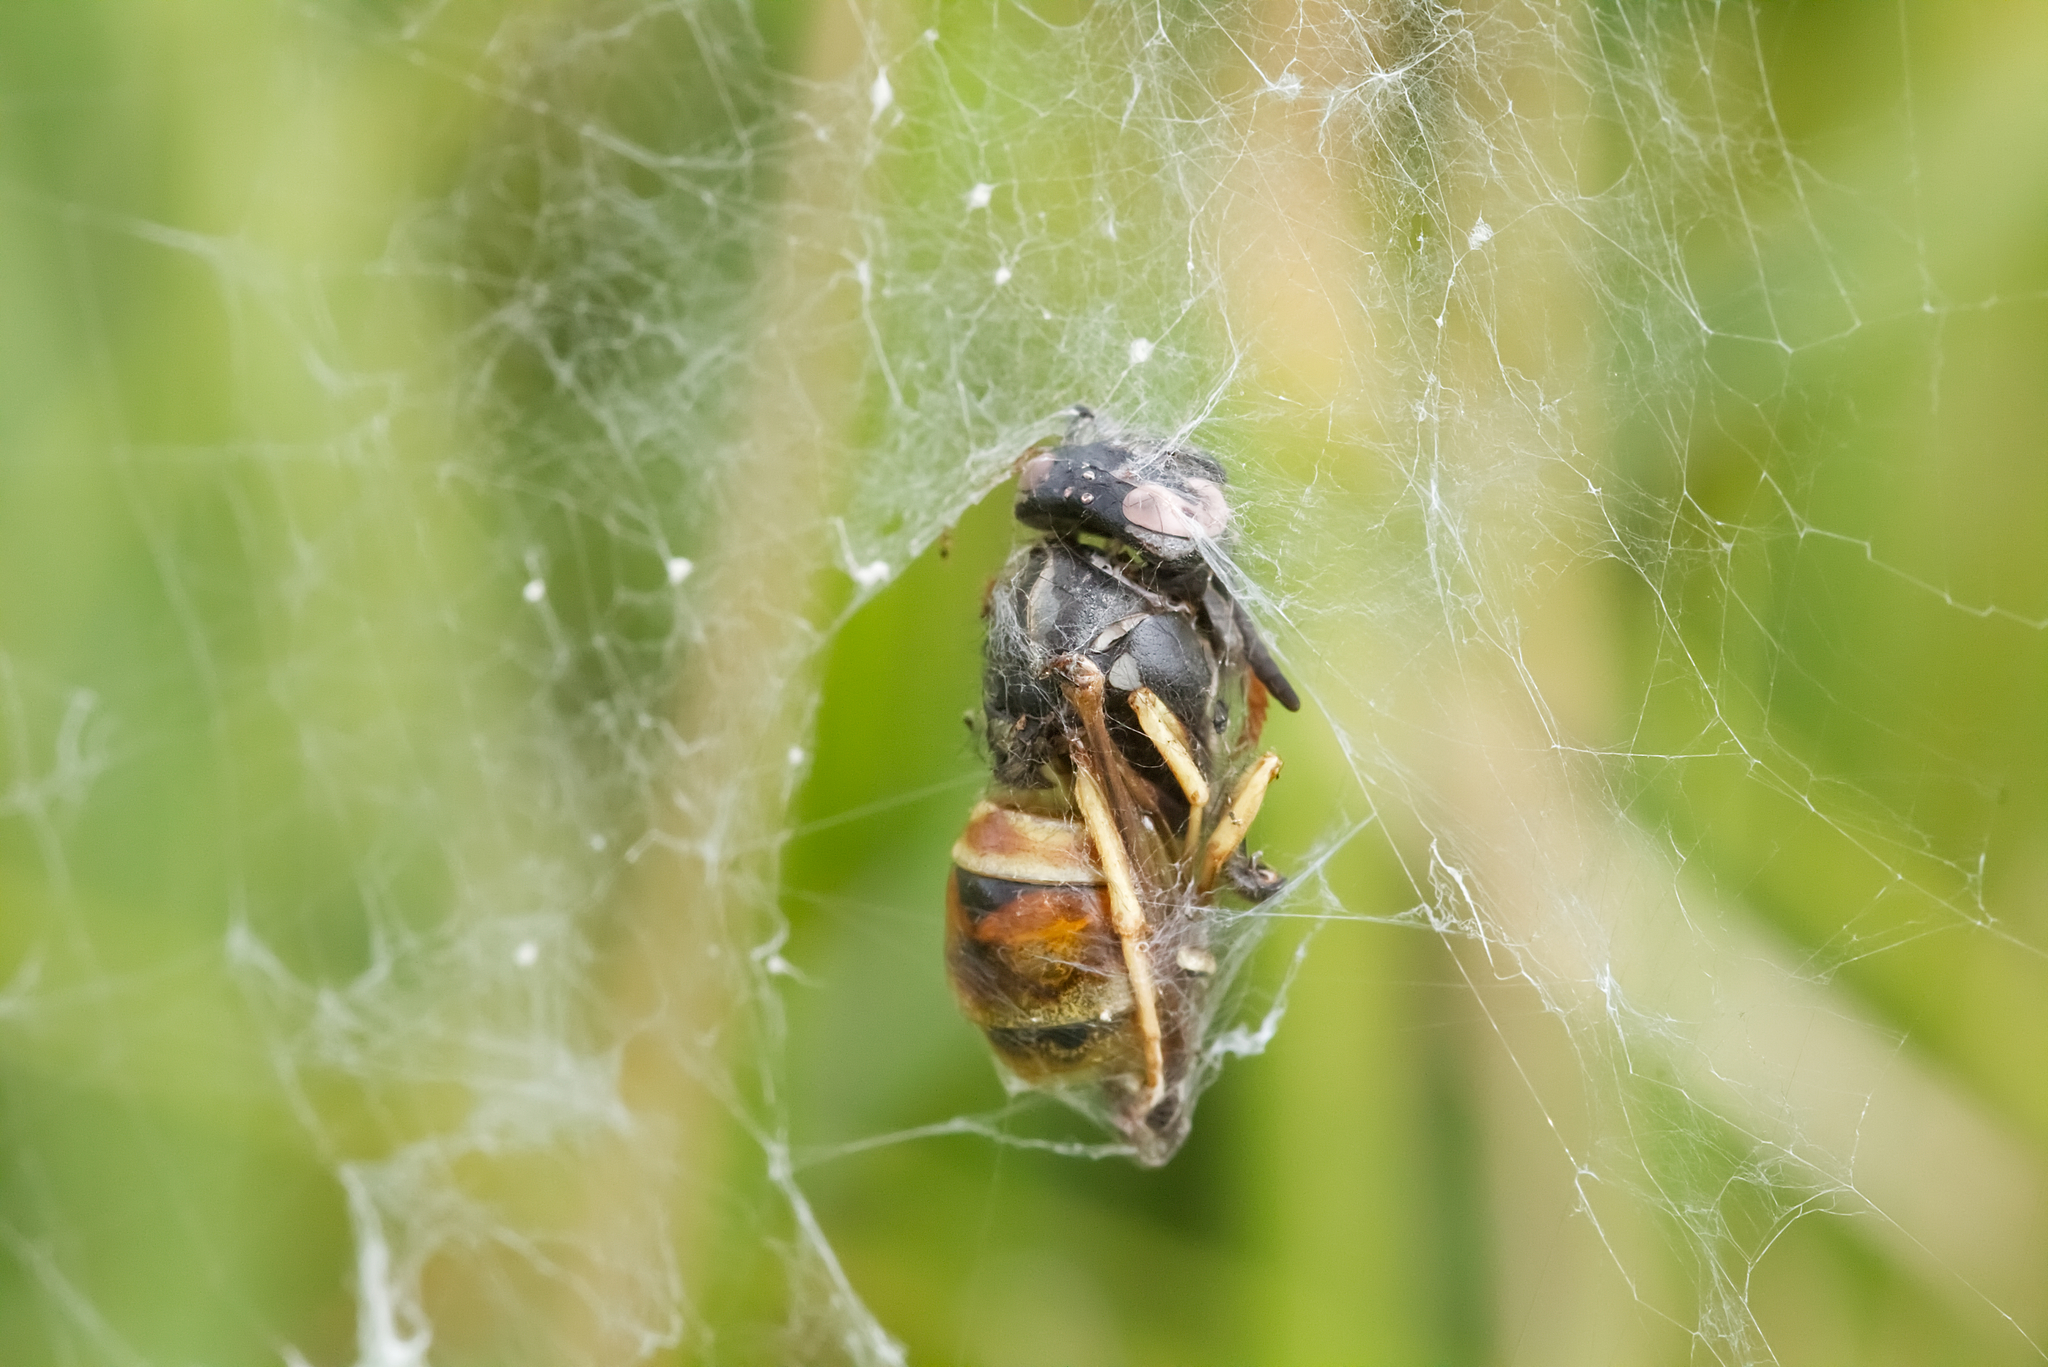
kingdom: Animalia
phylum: Arthropoda
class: Insecta
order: Hymenoptera
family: Vespidae
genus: Vespula
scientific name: Vespula rufa
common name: Red wasp
